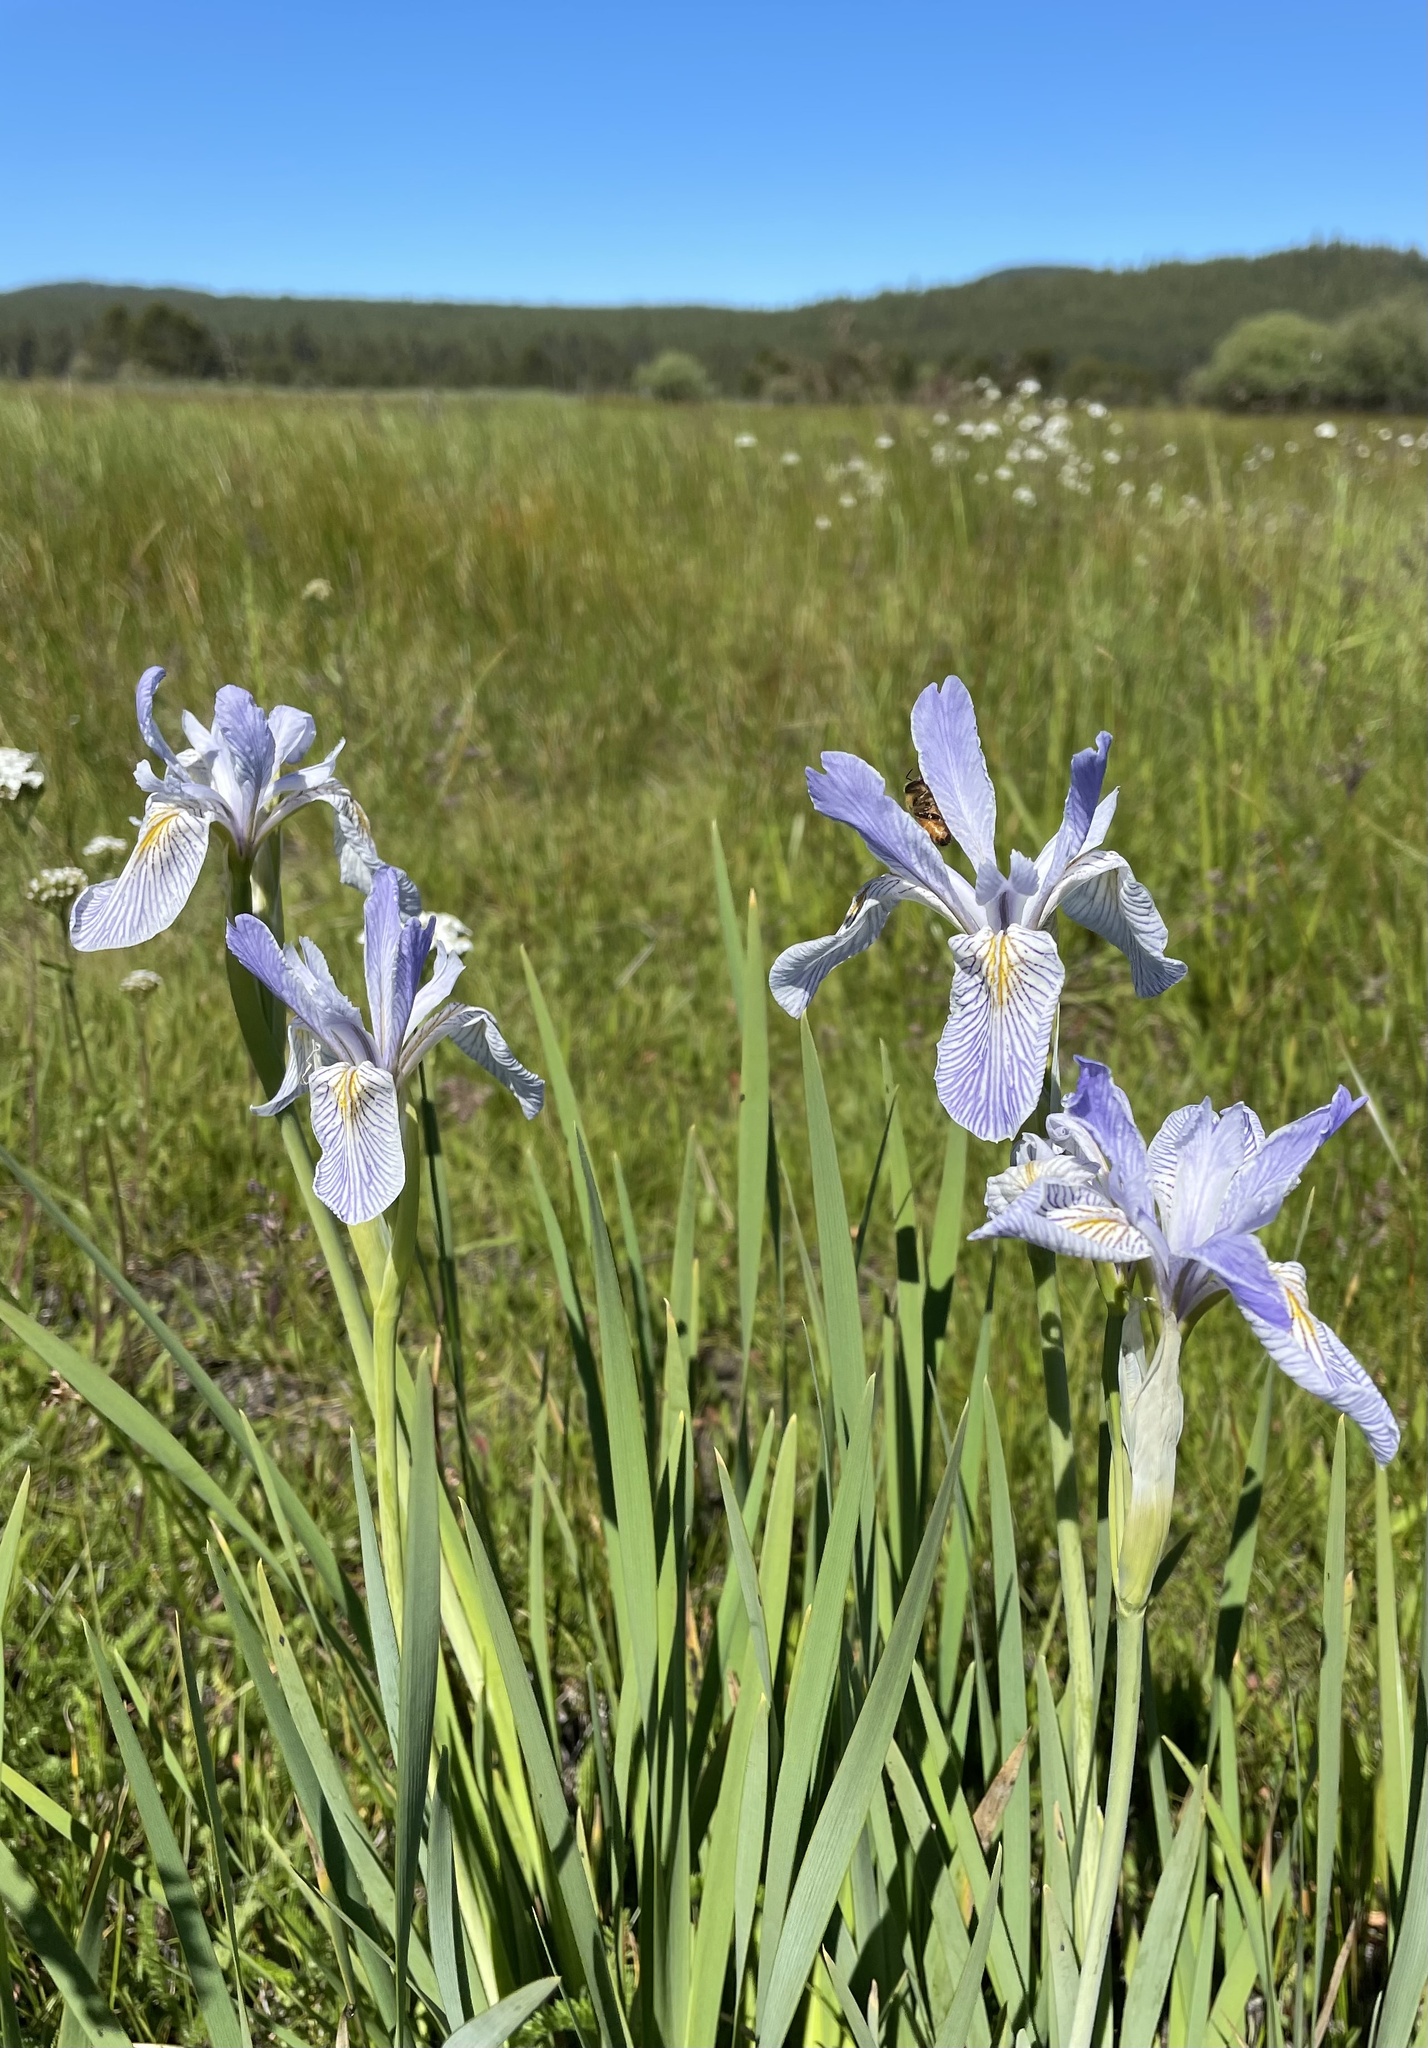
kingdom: Plantae
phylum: Tracheophyta
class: Liliopsida
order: Asparagales
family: Iridaceae
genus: Iris
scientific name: Iris missouriensis
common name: Rocky mountain iris
